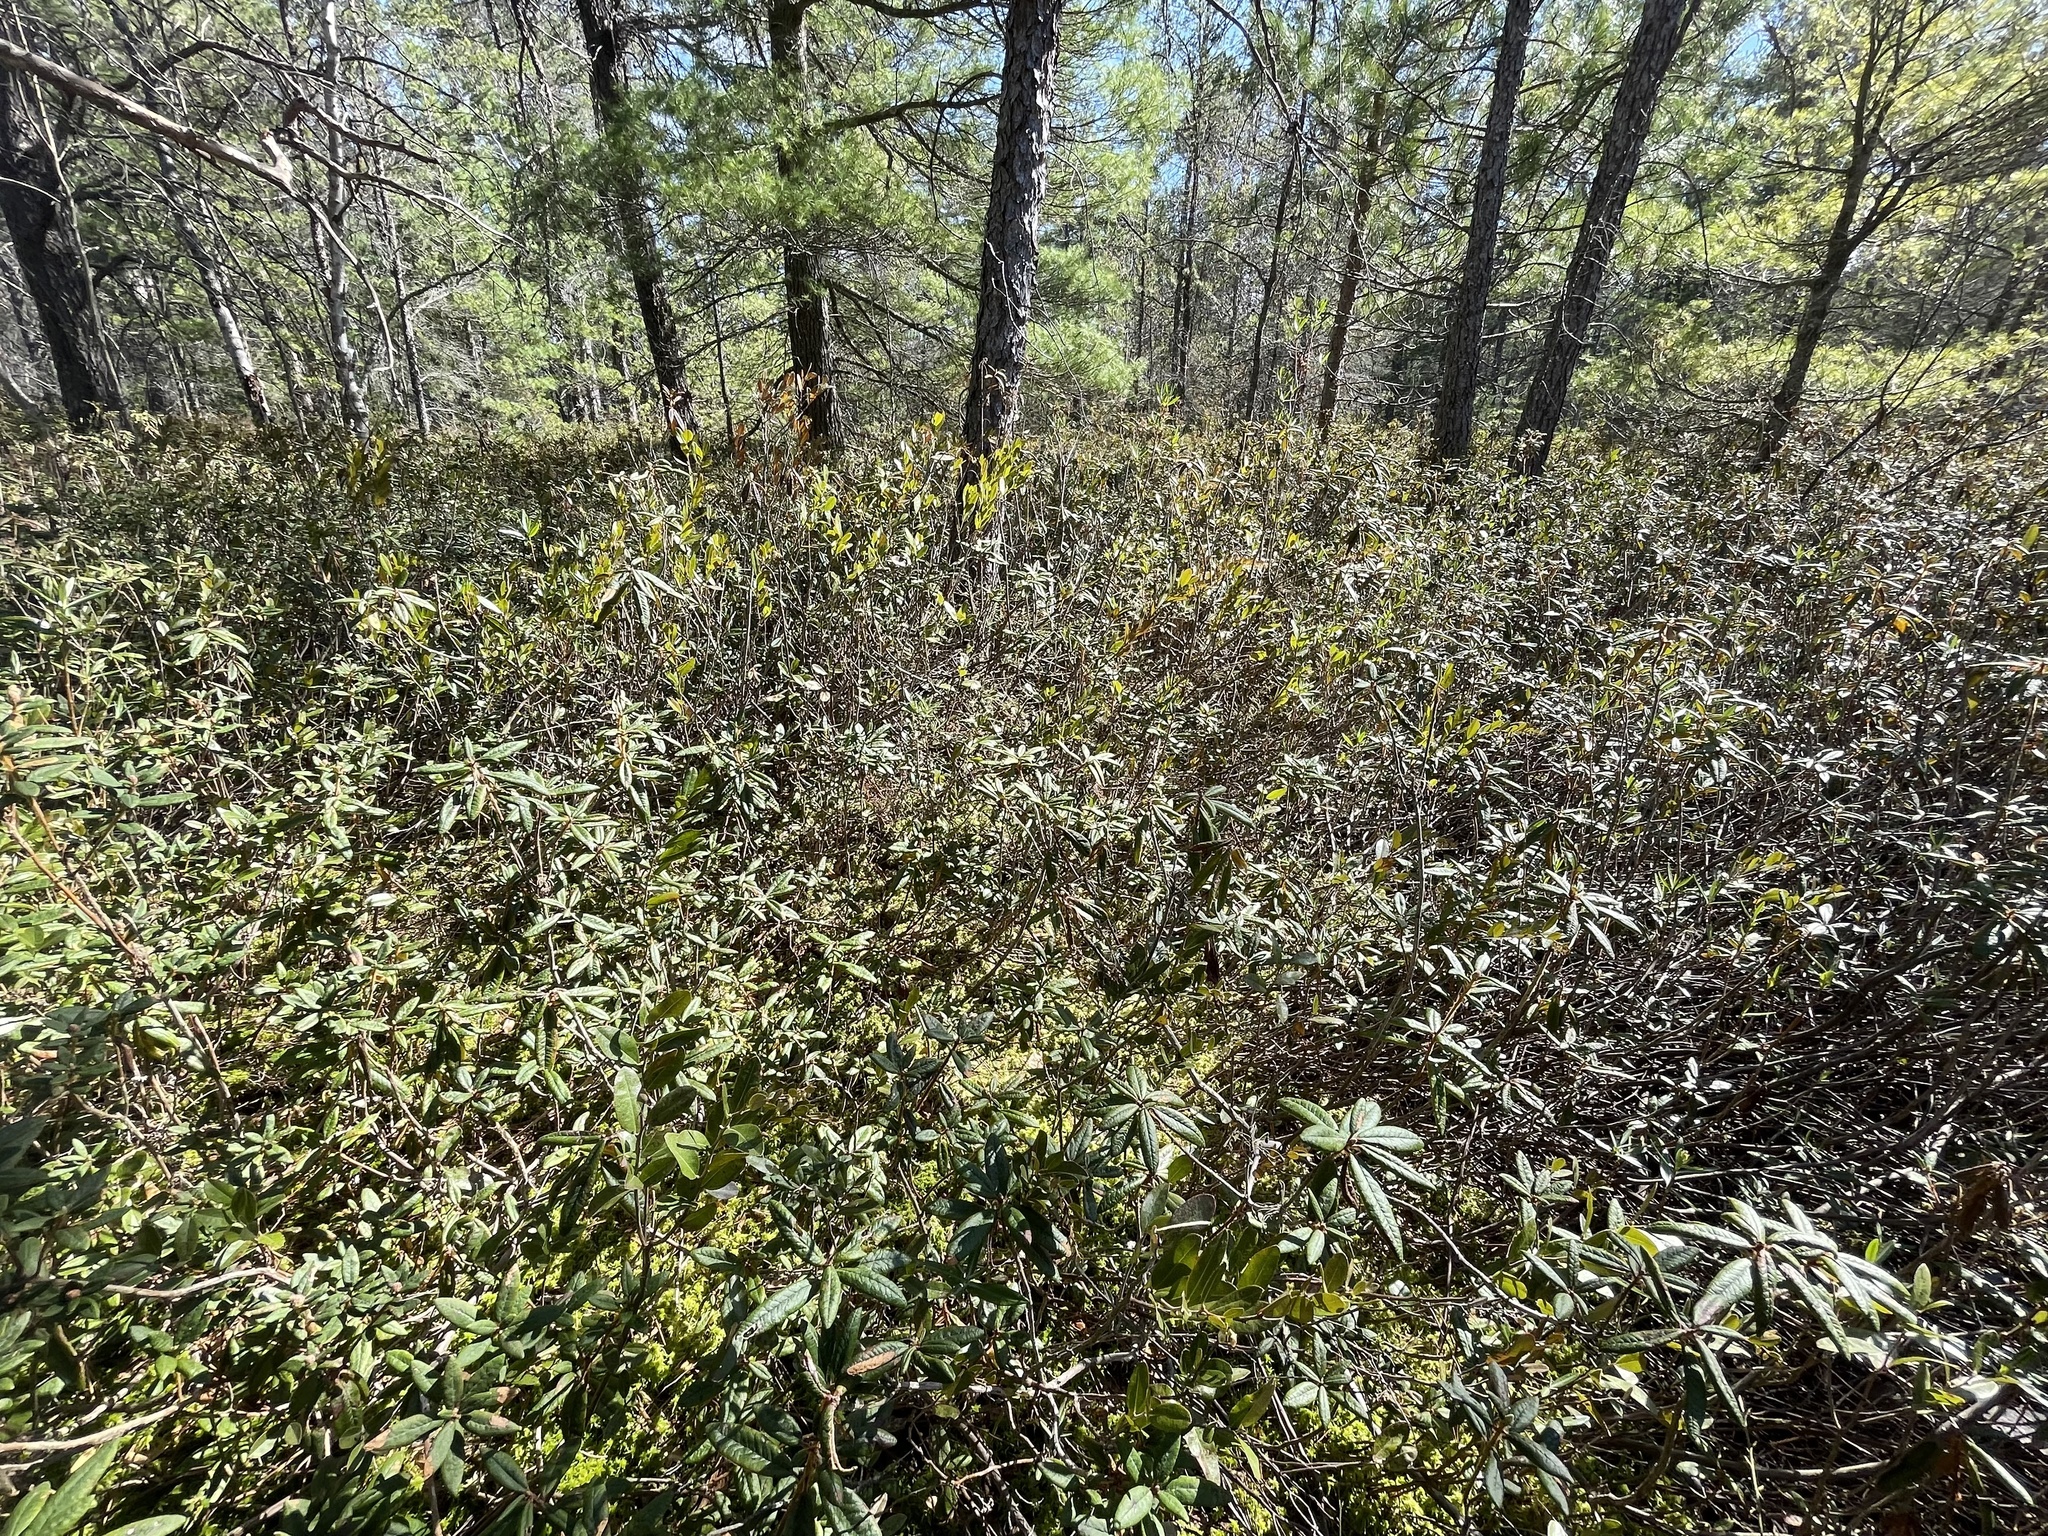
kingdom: Plantae
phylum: Tracheophyta
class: Magnoliopsida
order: Ericales
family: Ericaceae
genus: Rhododendron
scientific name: Rhododendron groenlandicum
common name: Bog labrador tea
